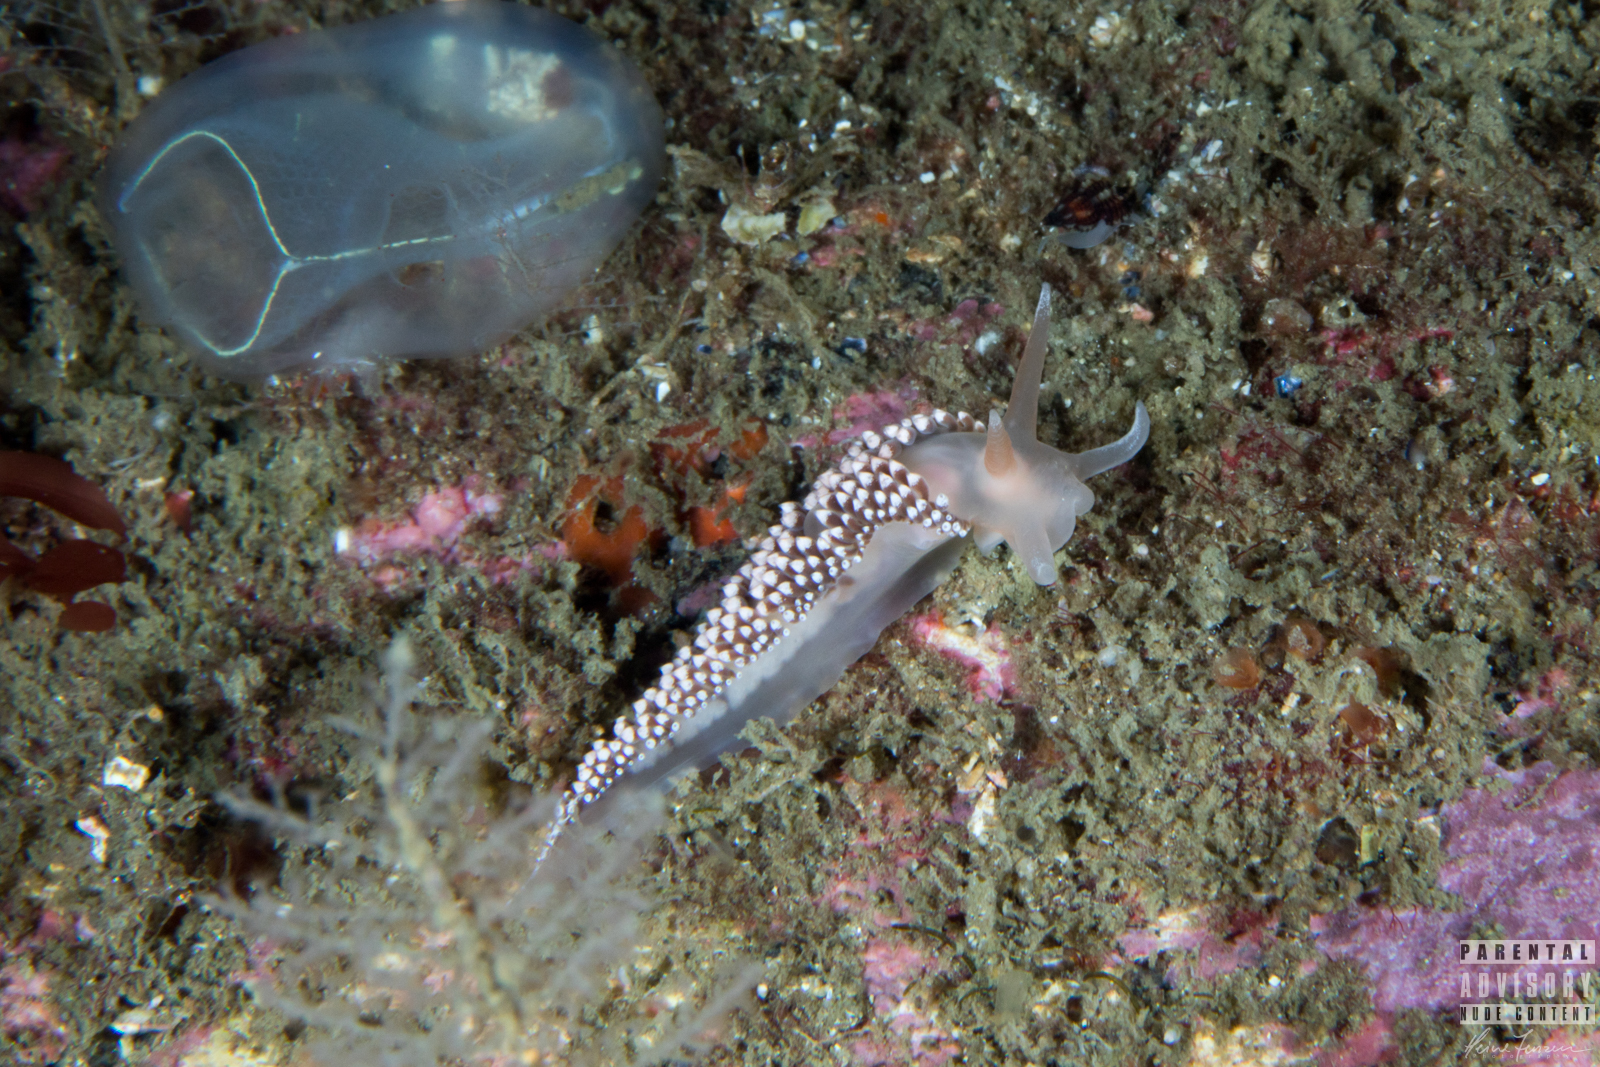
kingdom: Animalia
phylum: Mollusca
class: Gastropoda
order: Nudibranchia
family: Coryphellidae
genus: Coryphella
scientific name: Coryphella verrucosa
